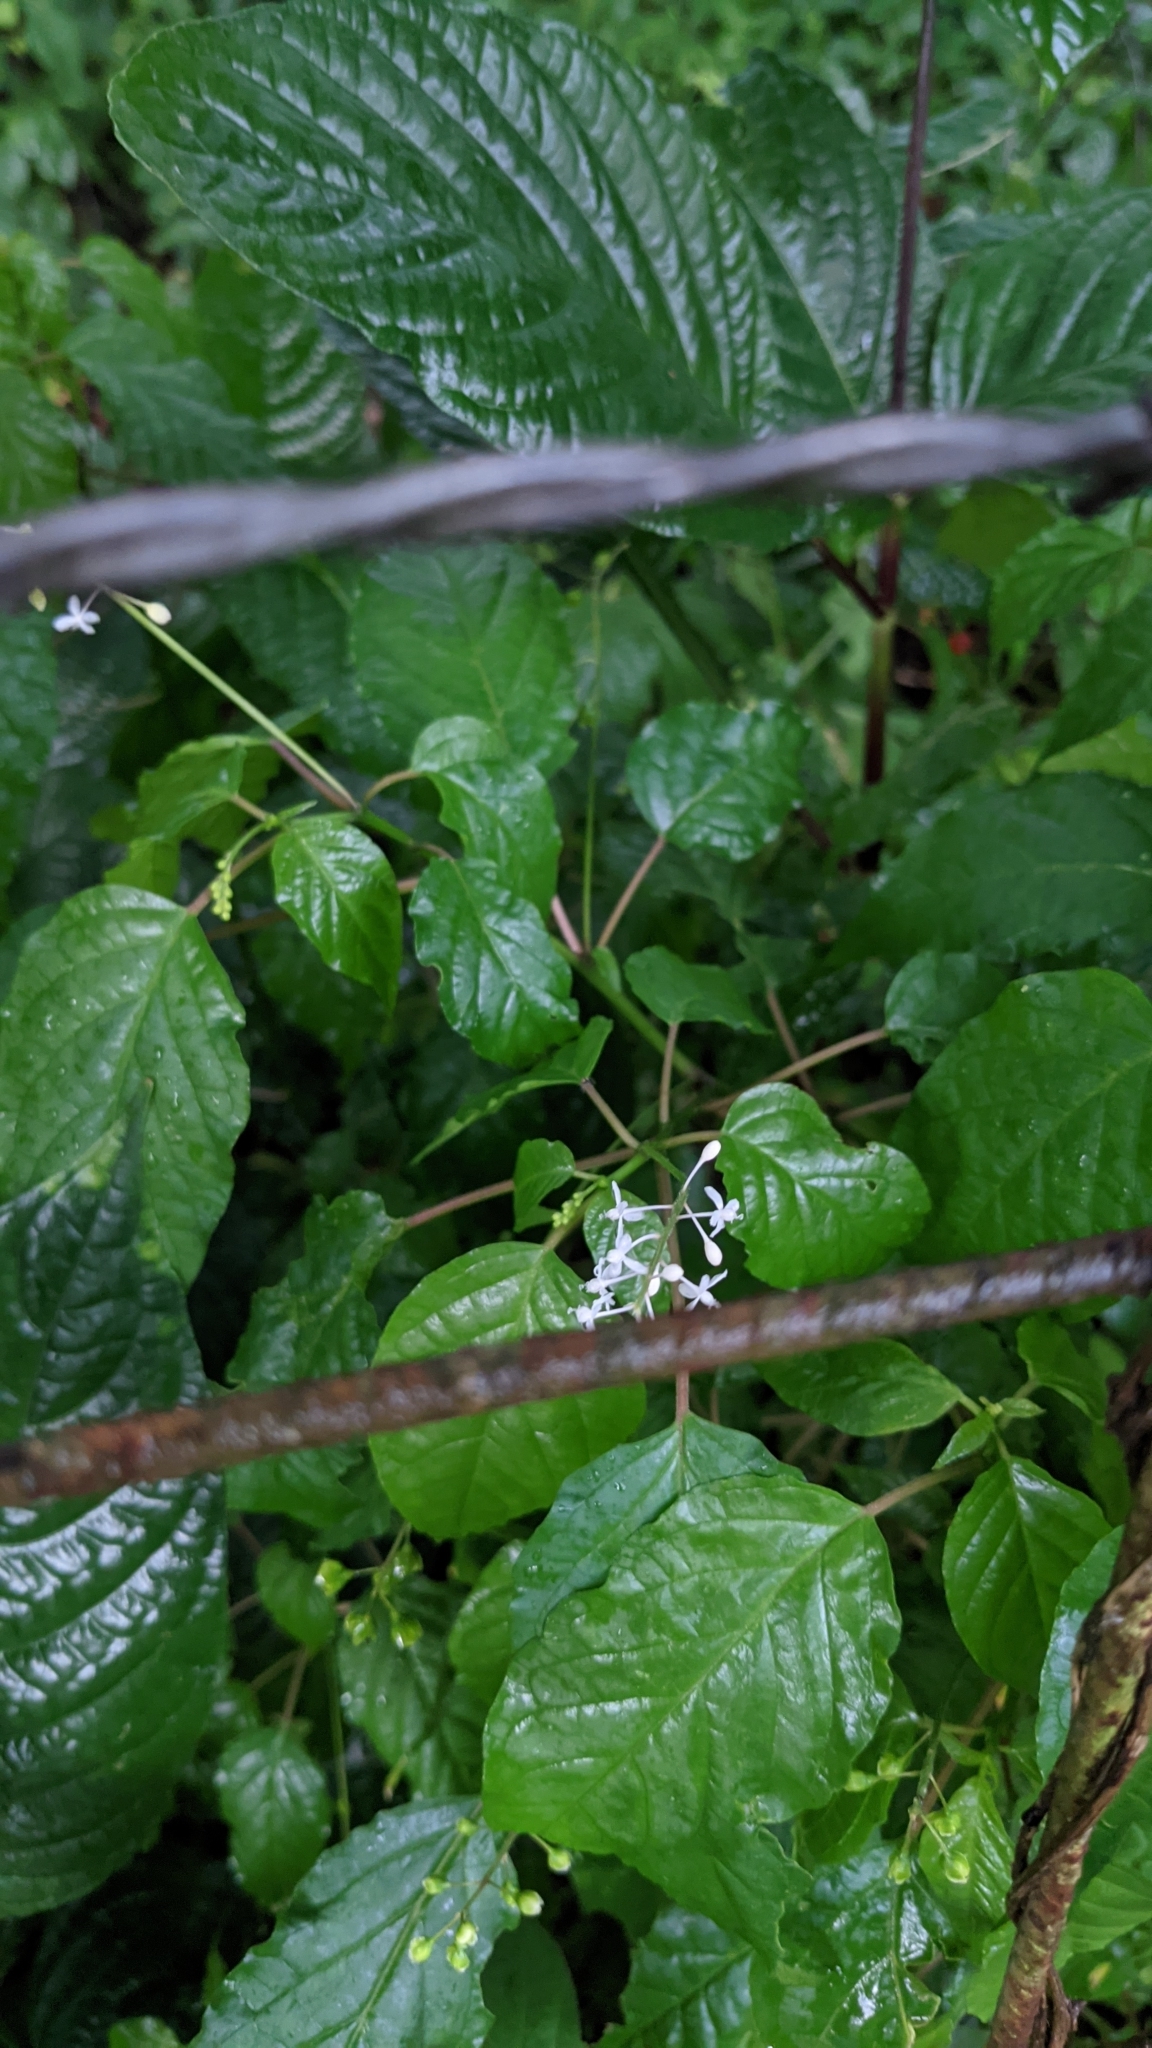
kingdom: Plantae
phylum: Tracheophyta
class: Magnoliopsida
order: Caryophyllales
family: Phytolaccaceae
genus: Rivina
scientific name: Rivina humilis
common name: Rougeplant
